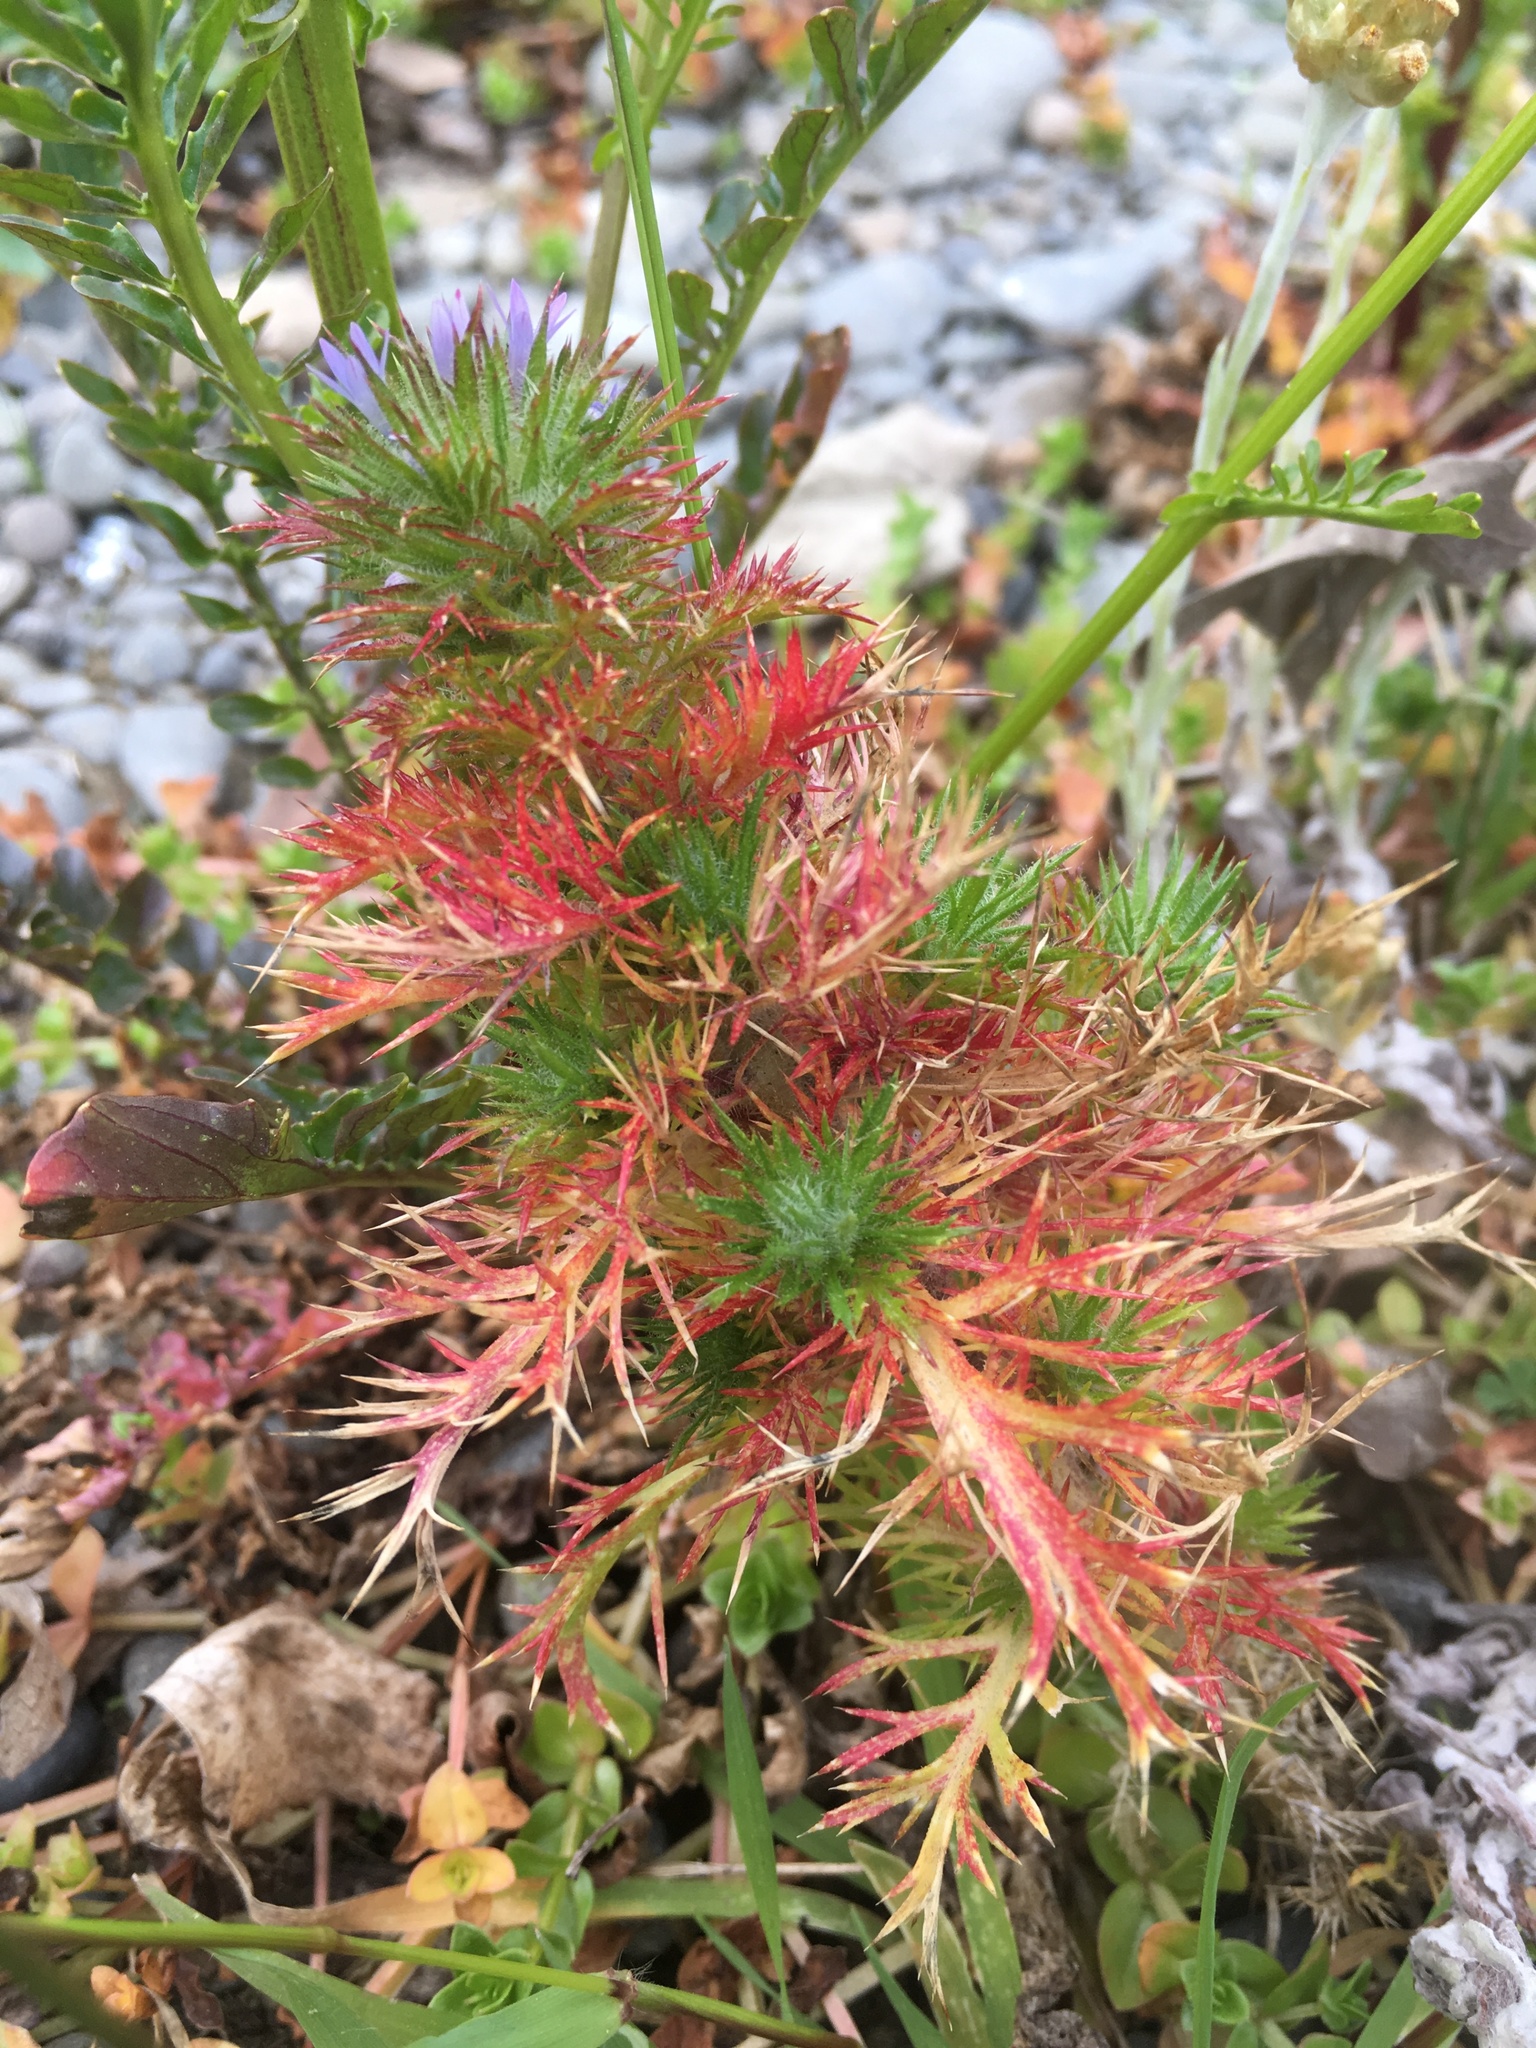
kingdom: Plantae
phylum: Tracheophyta
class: Magnoliopsida
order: Ericales
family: Polemoniaceae
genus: Navarretia
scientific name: Navarretia squarrosa
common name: Skunkweed
